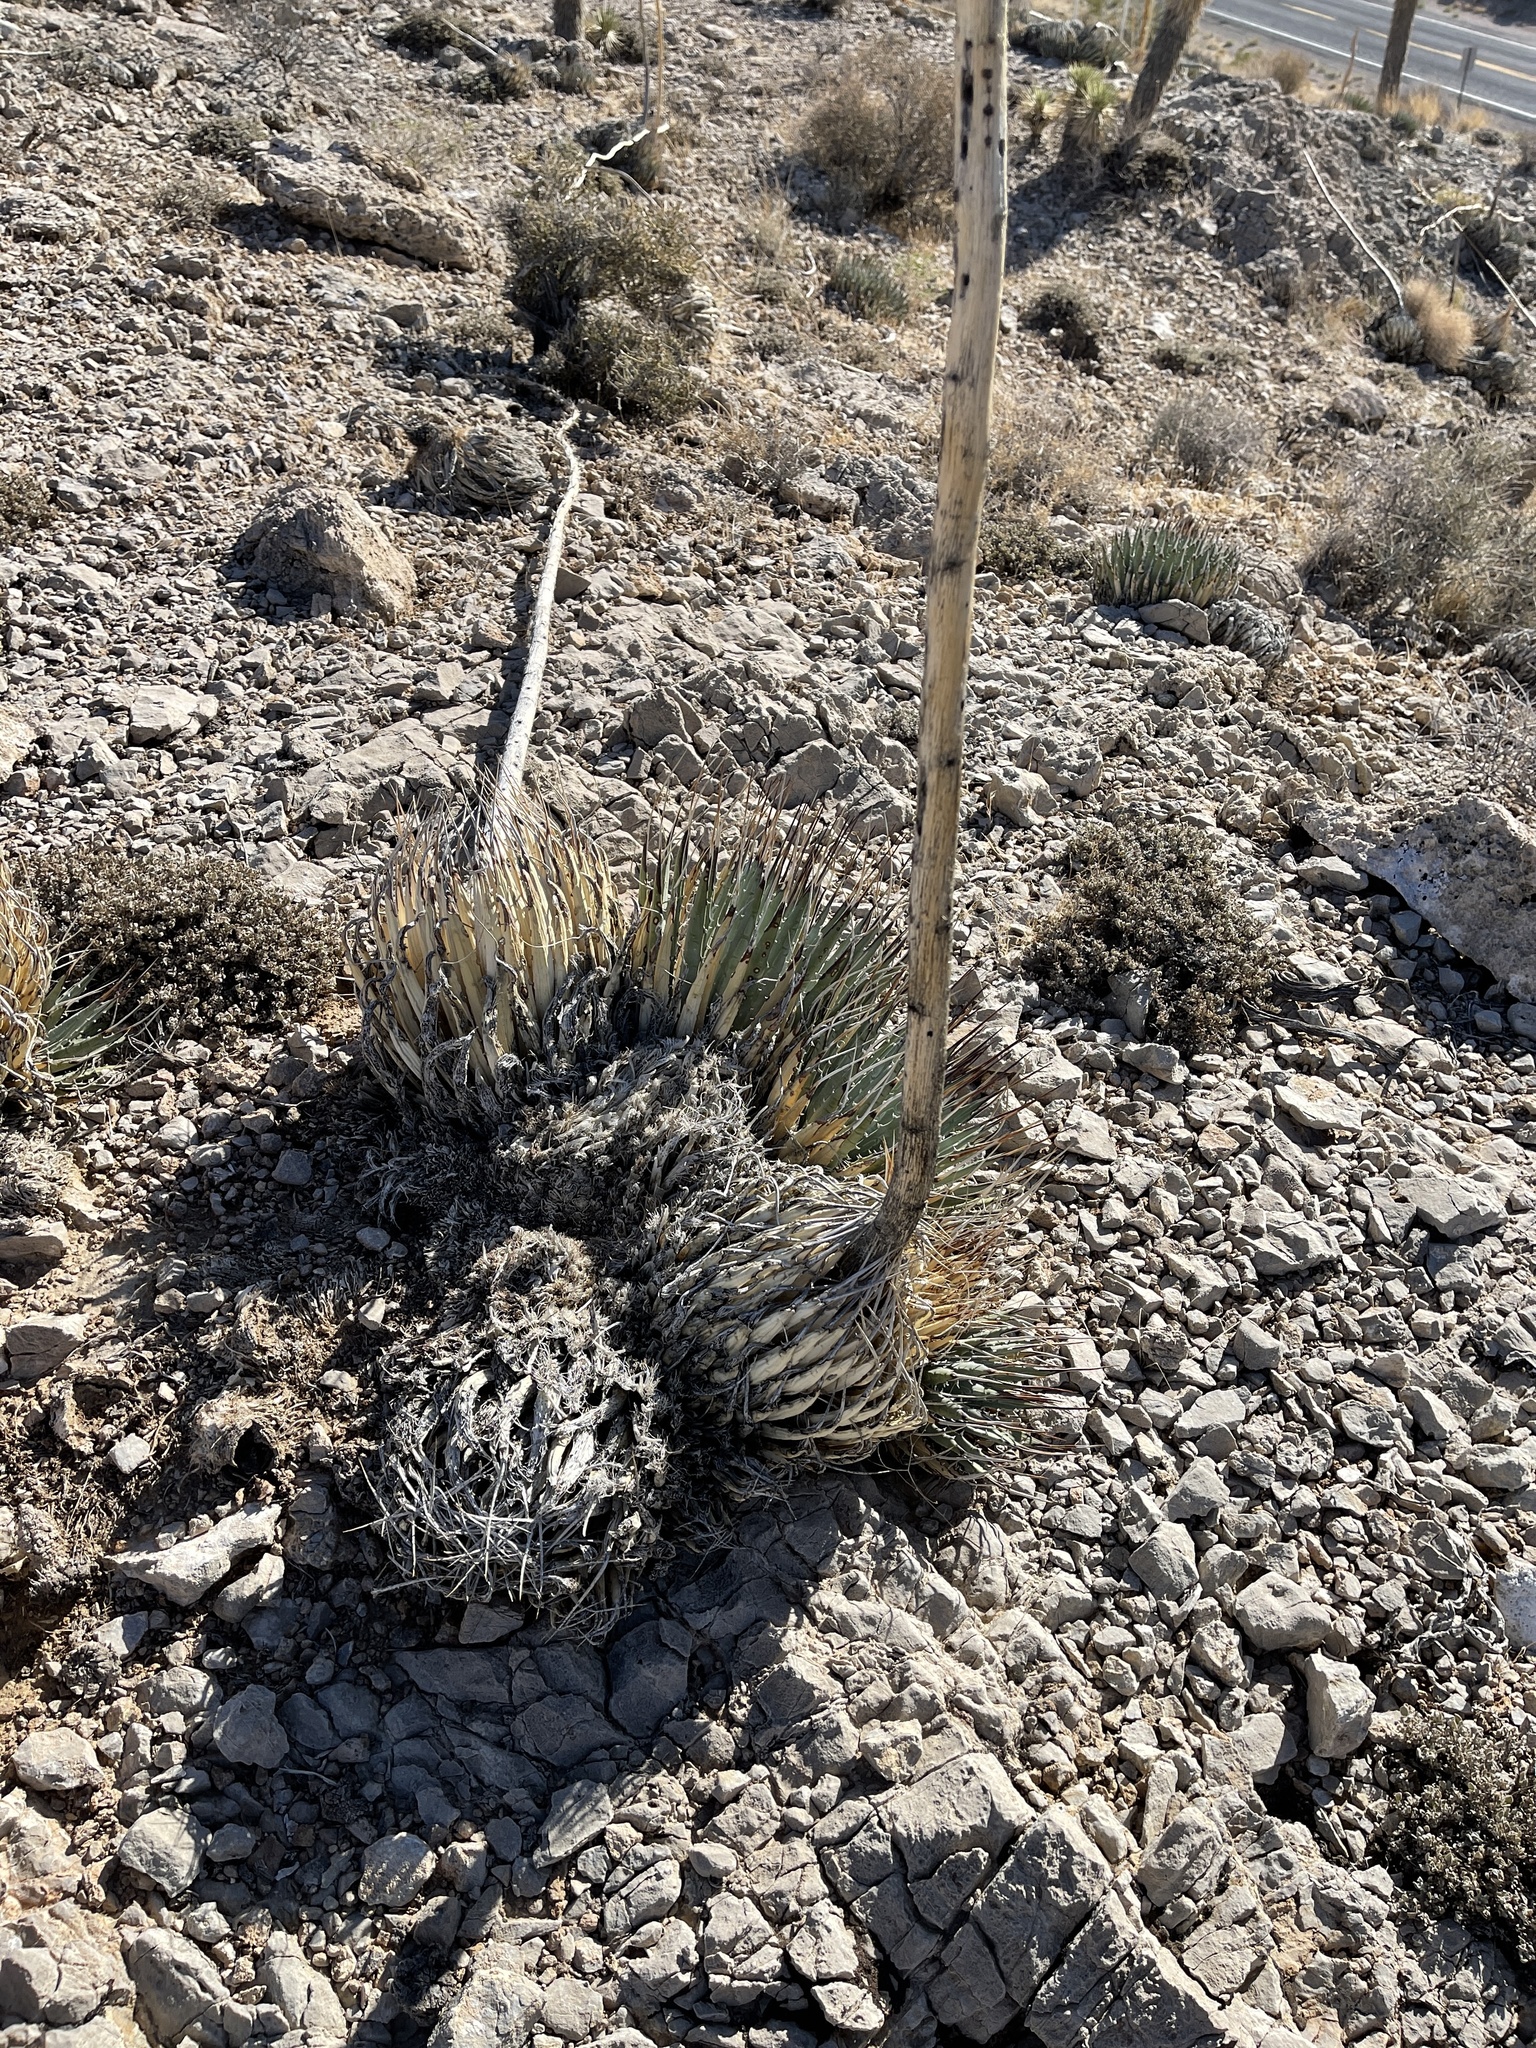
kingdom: Plantae
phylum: Tracheophyta
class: Liliopsida
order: Asparagales
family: Asparagaceae
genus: Agave
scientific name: Agave utahensis
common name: Utah agave
